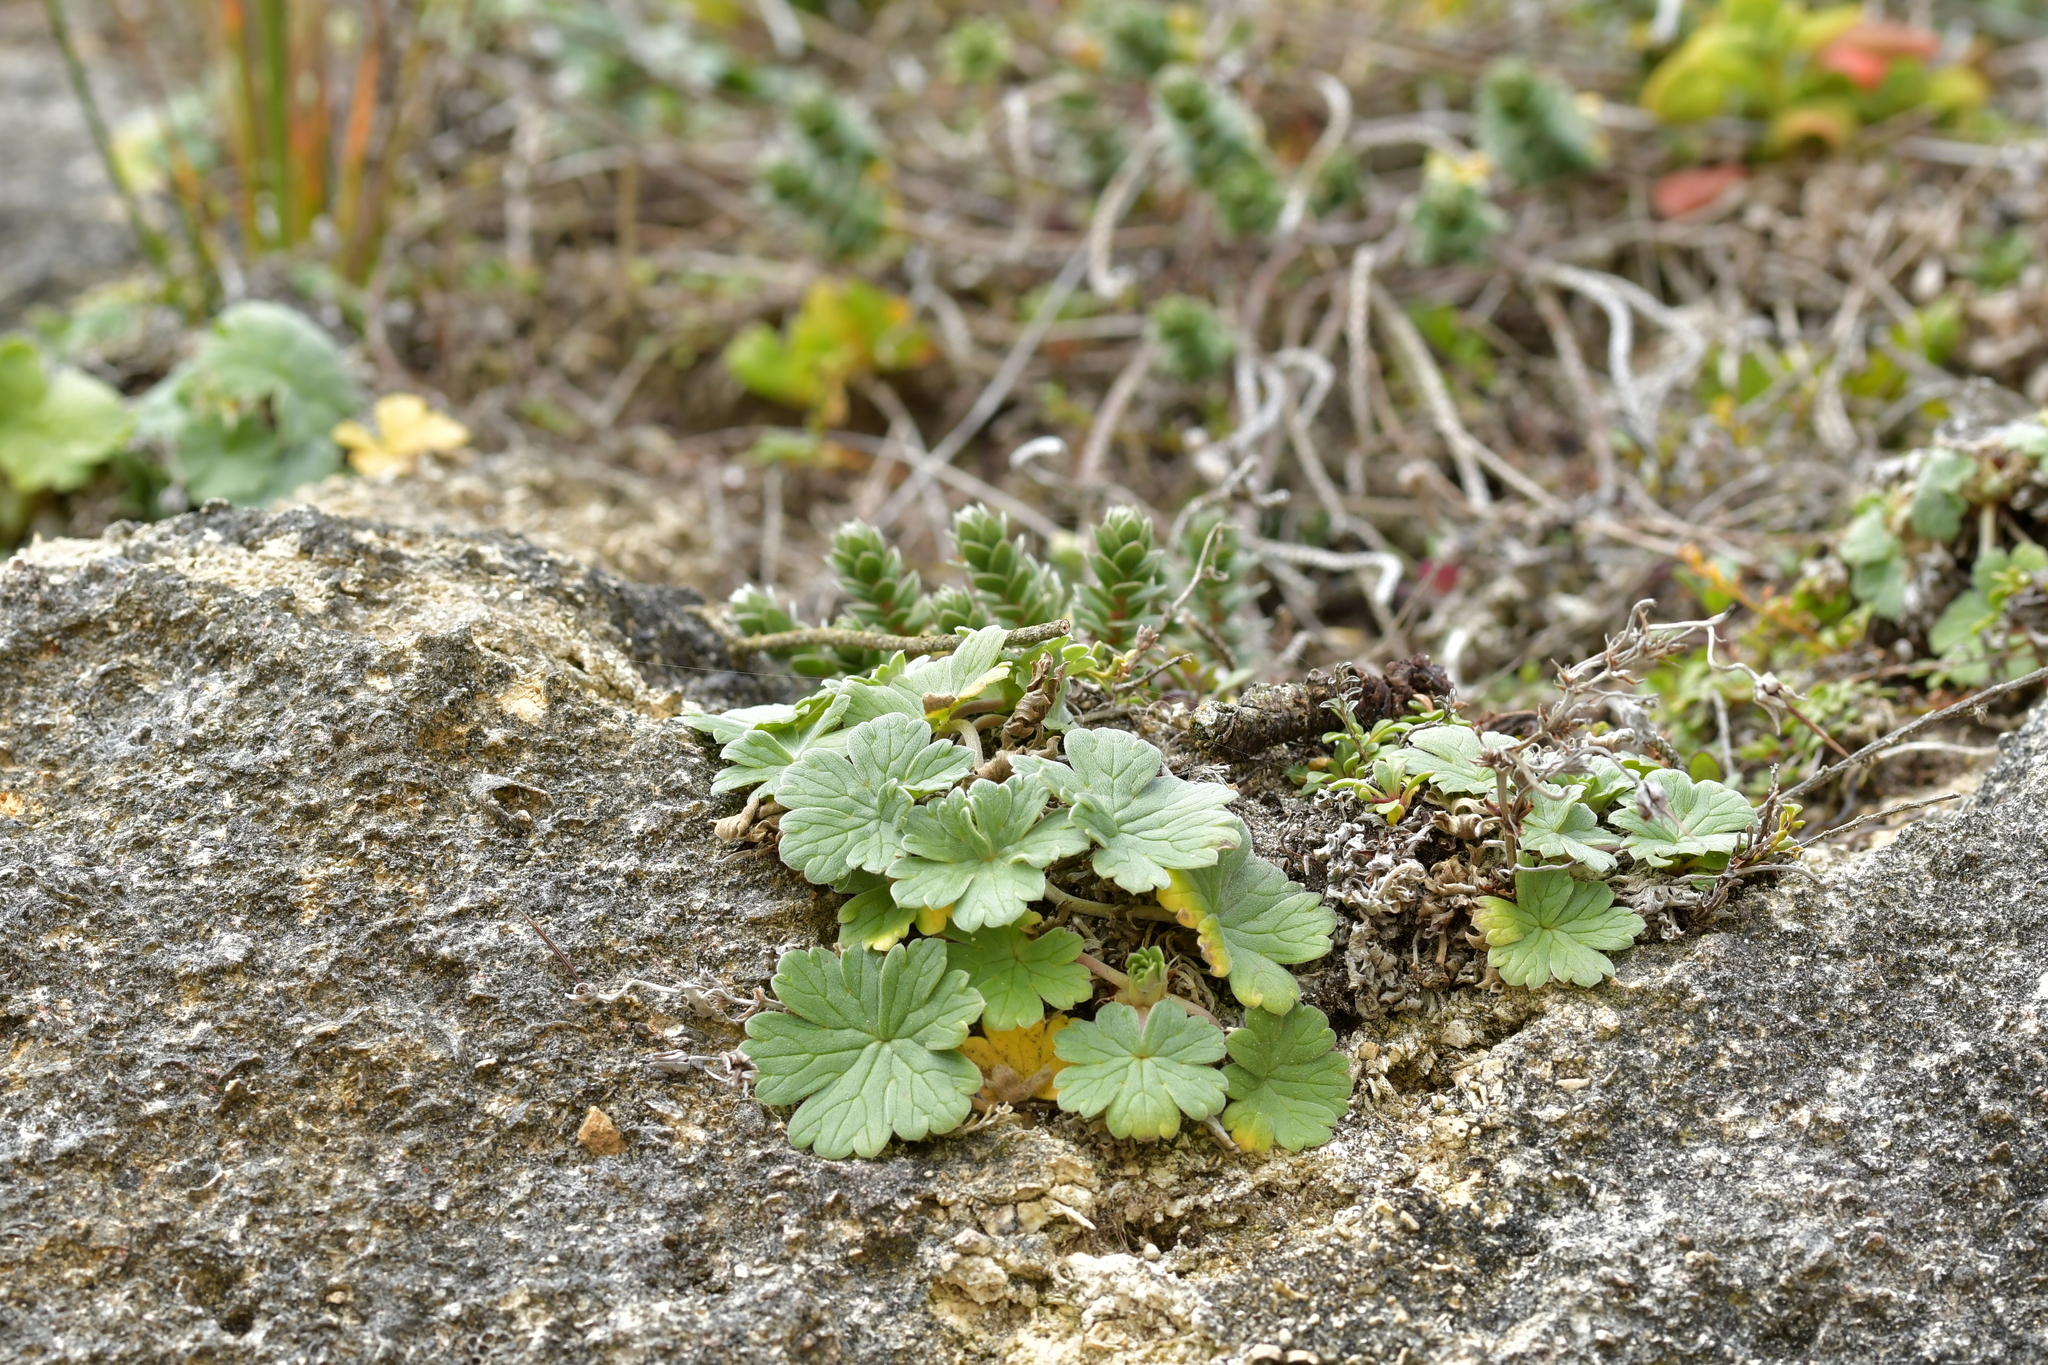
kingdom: Plantae
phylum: Tracheophyta
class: Magnoliopsida
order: Geraniales
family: Geraniaceae
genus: Geranium
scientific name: Geranium traversii
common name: Cranesbill
